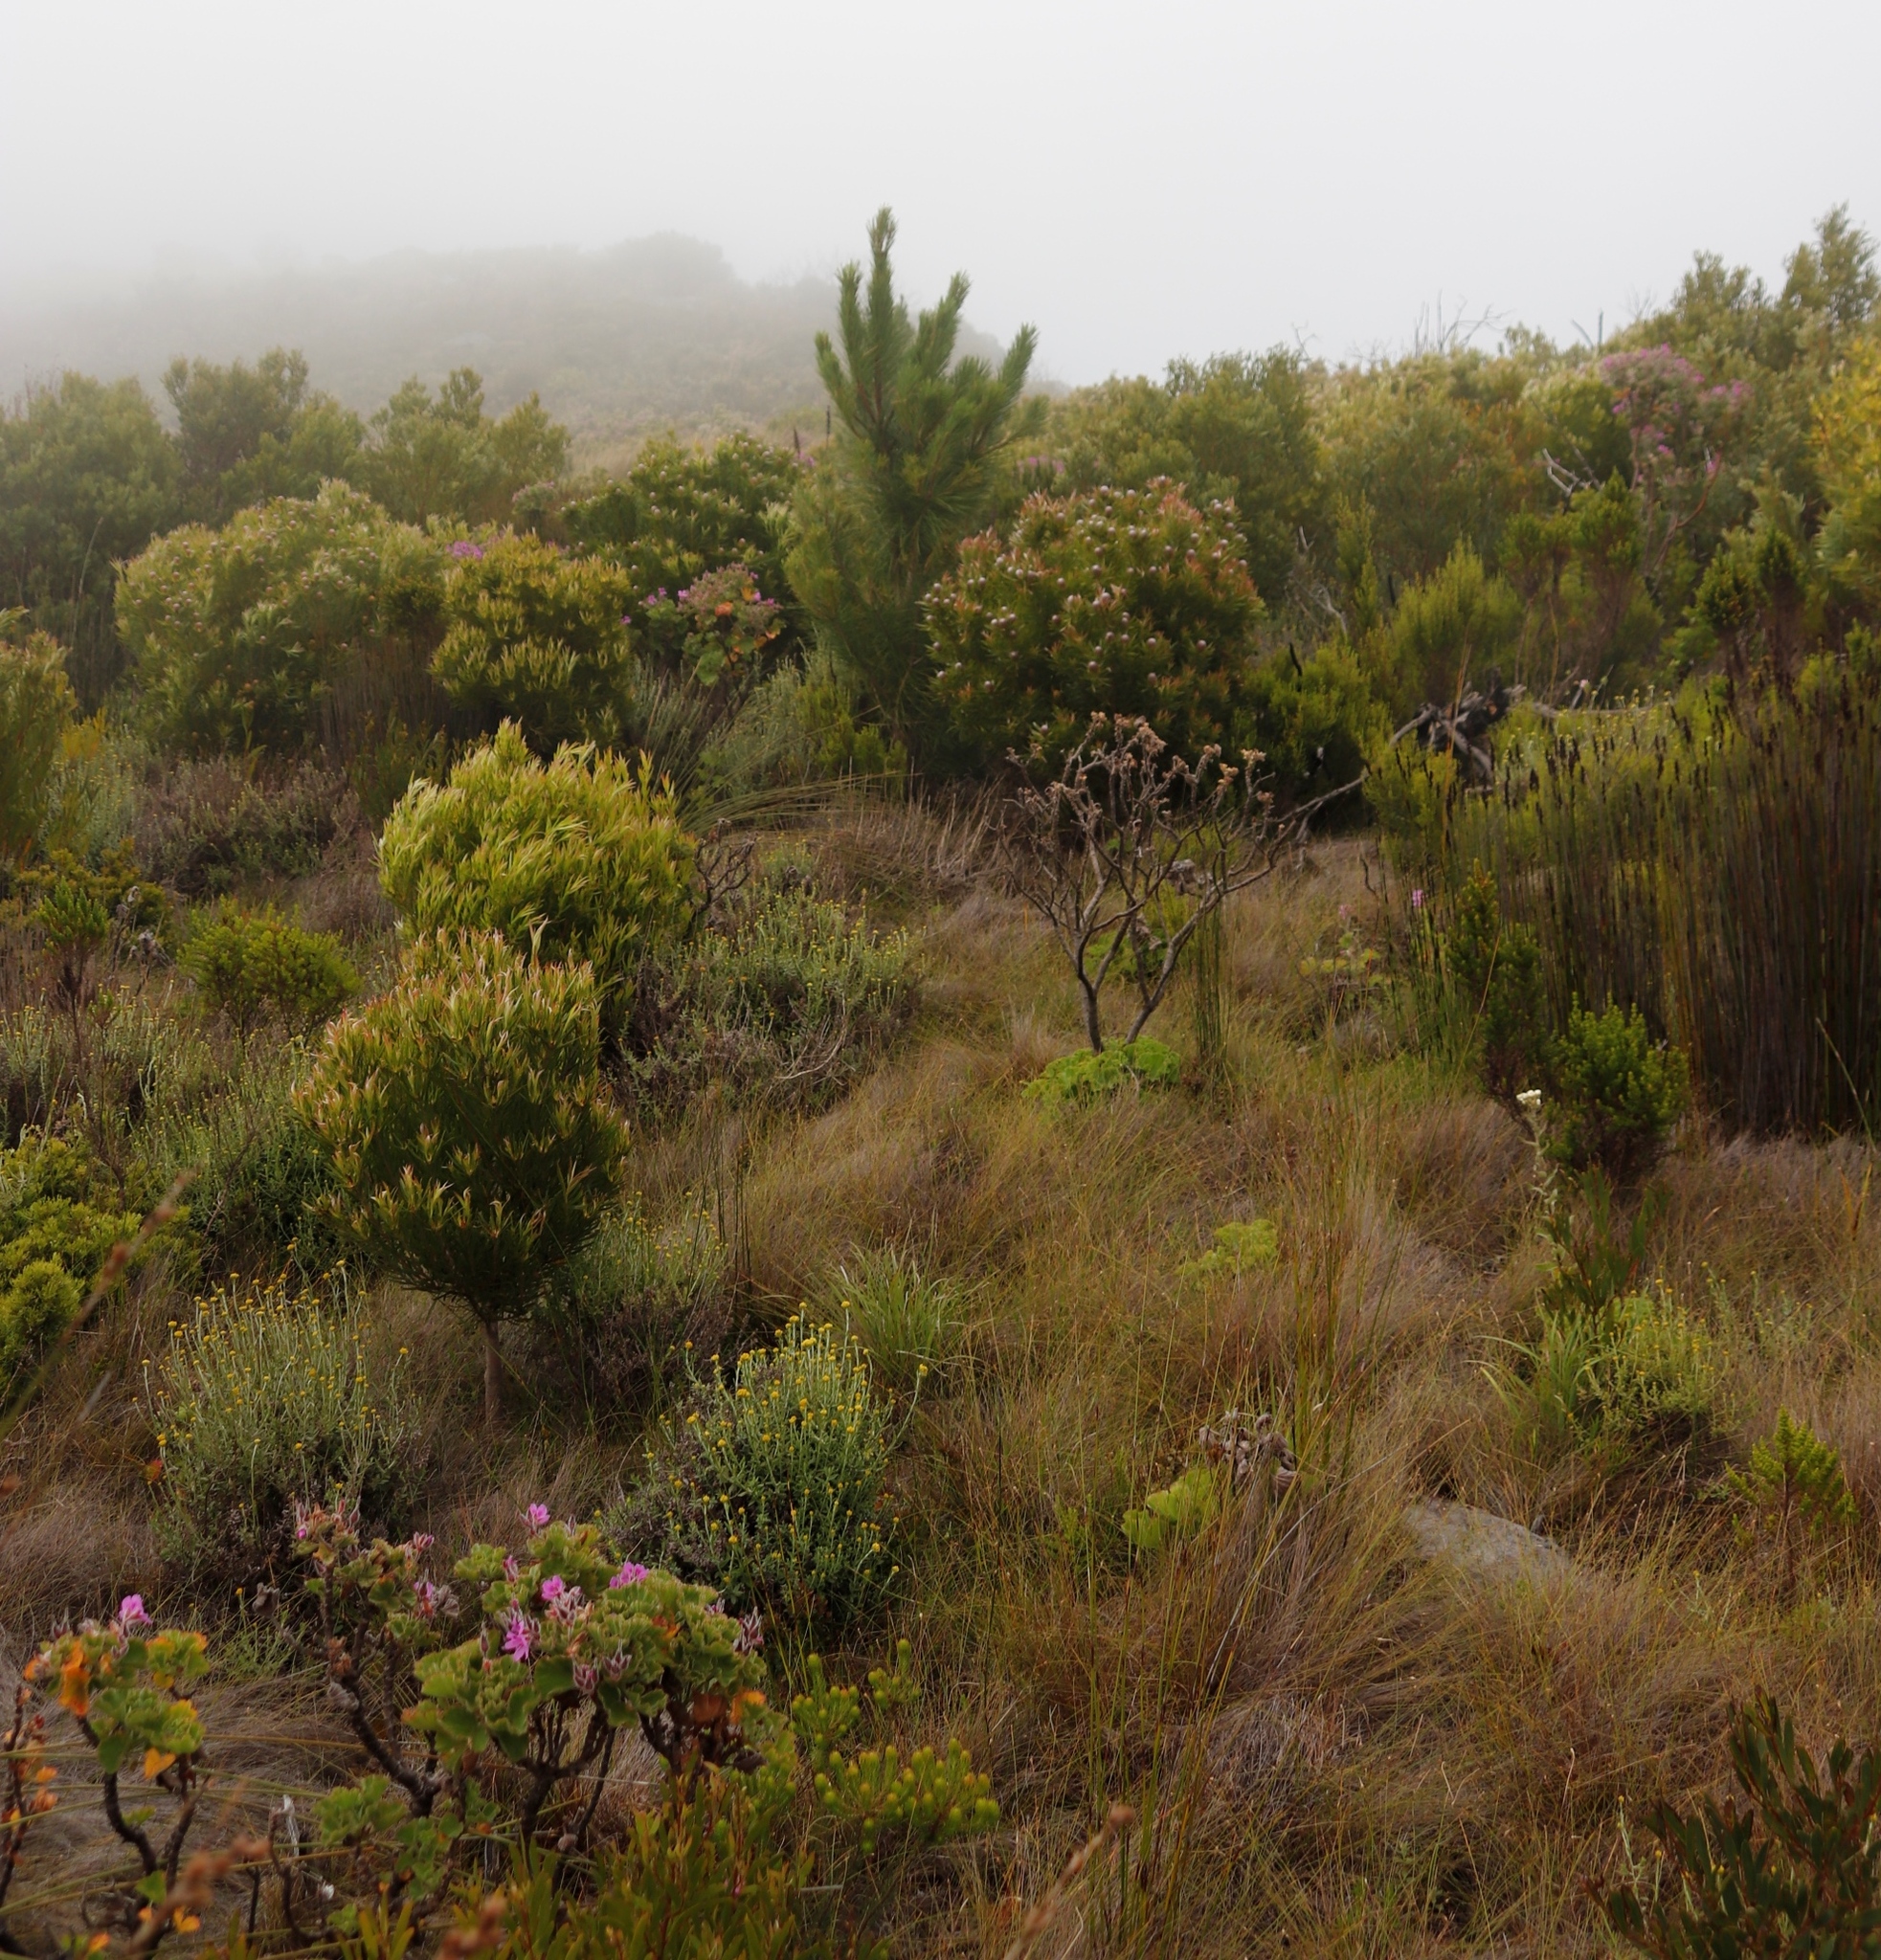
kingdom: Plantae
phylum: Tracheophyta
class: Magnoliopsida
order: Proteales
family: Proteaceae
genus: Leucadendron
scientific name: Leucadendron xanthoconus
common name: Sickle-leaf conebush
